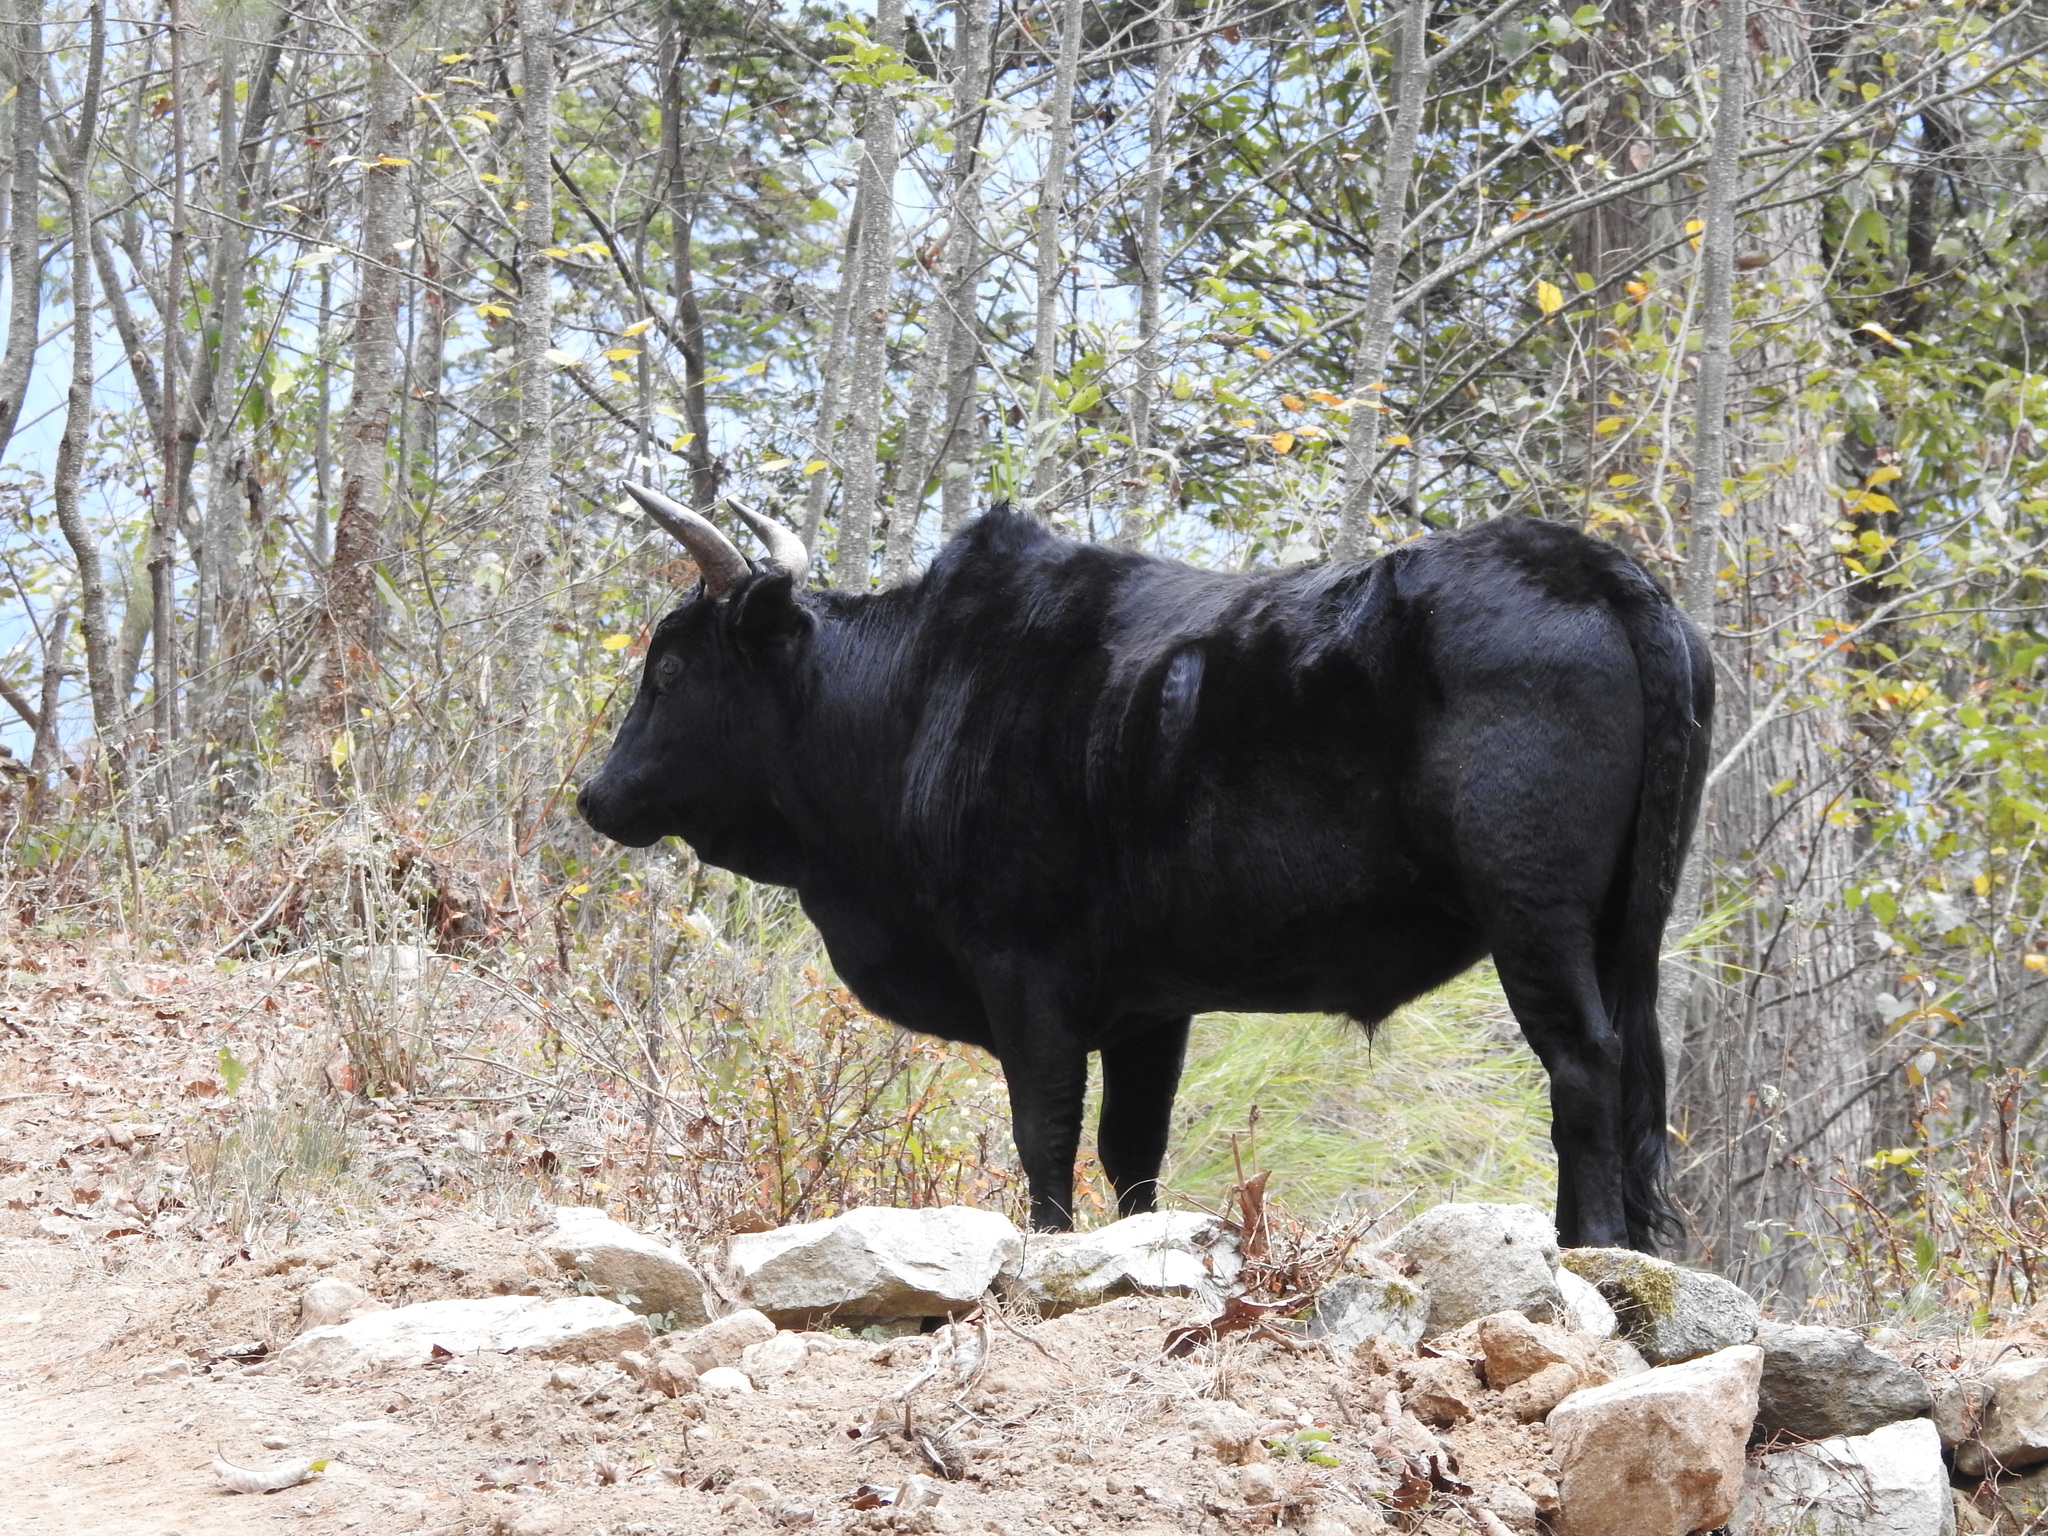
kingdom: Animalia
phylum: Chordata
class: Mammalia
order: Artiodactyla
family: Bovidae
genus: Bos
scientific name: Bos taurus
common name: Domesticated cattle
